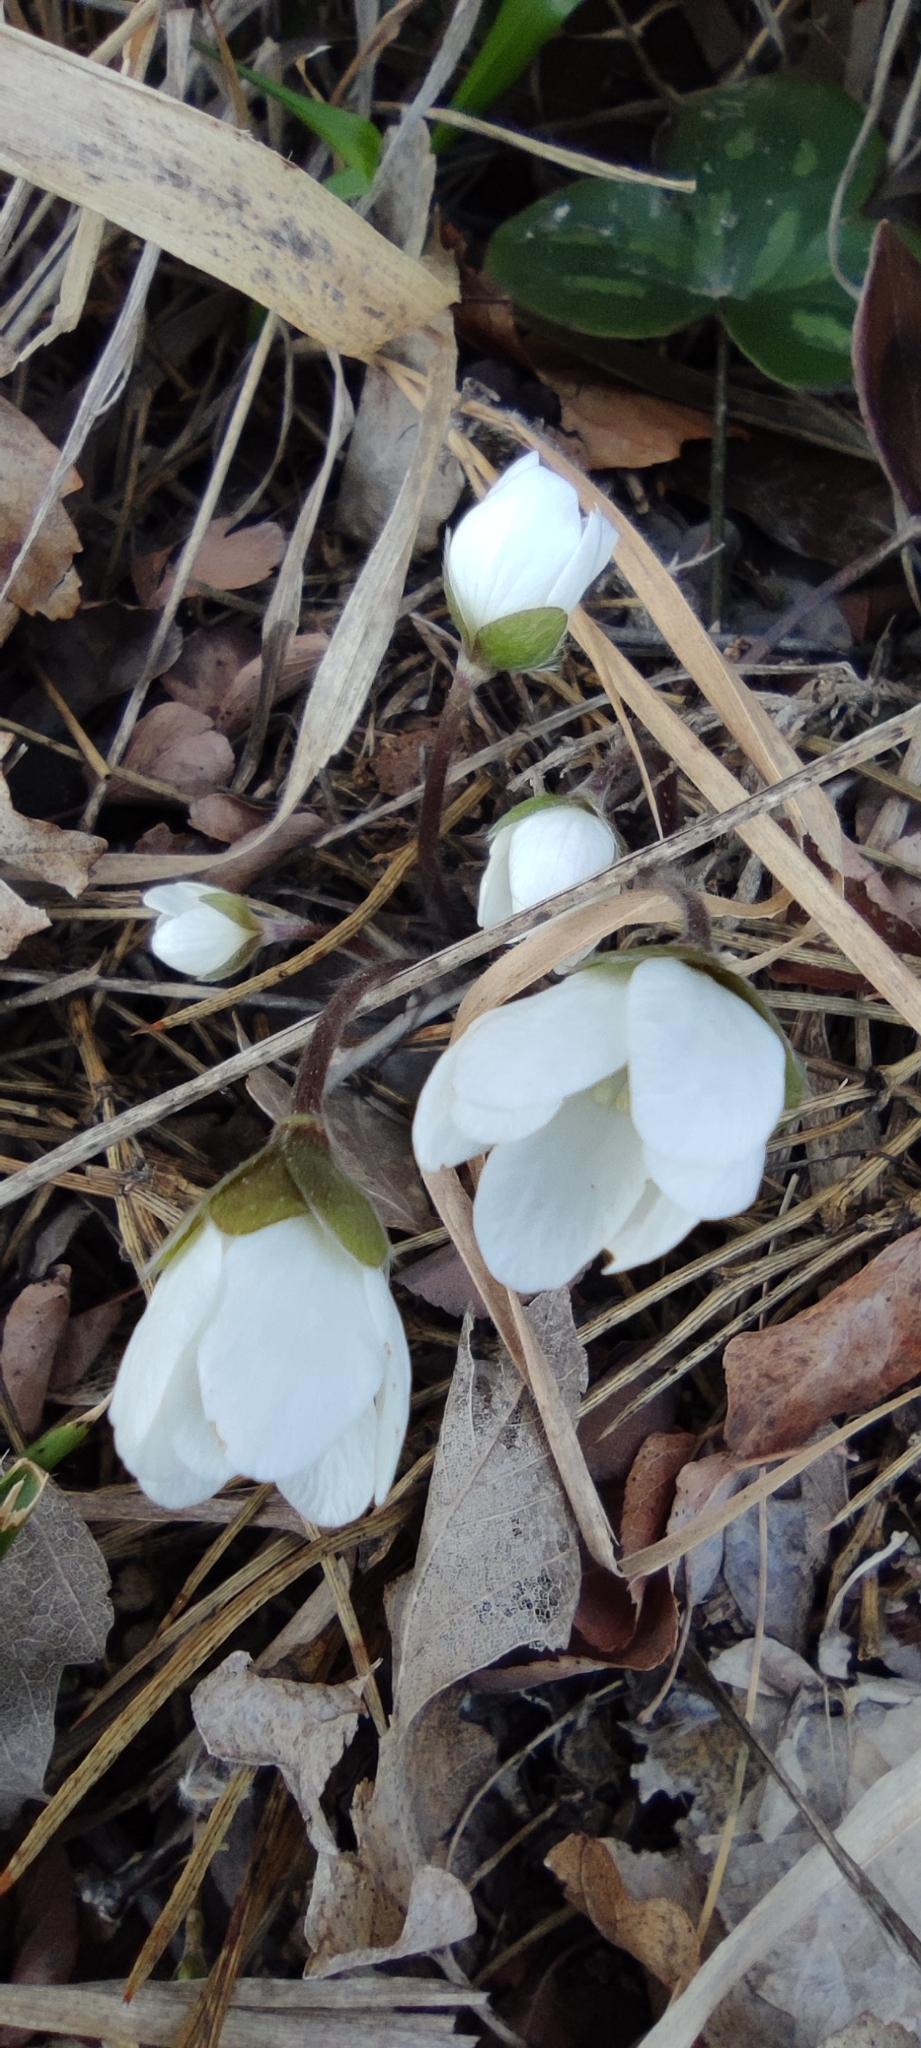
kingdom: Plantae
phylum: Tracheophyta
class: Magnoliopsida
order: Ranunculales
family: Ranunculaceae
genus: Hepatica
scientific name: Hepatica nobilis
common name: Liverleaf
